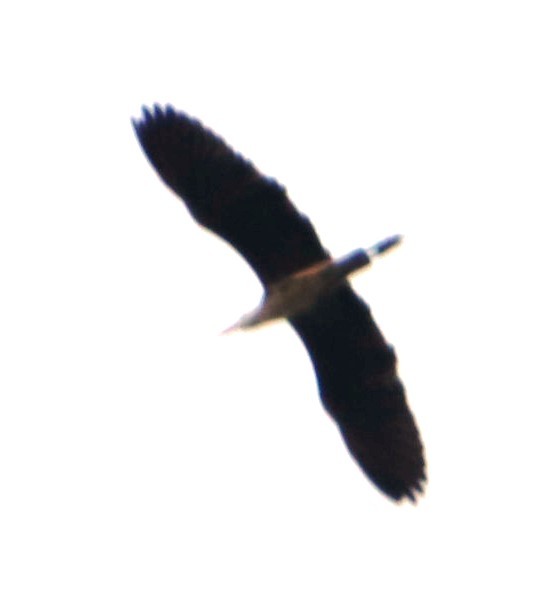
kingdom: Animalia
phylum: Chordata
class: Aves
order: Pelecaniformes
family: Ardeidae
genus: Ardea
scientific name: Ardea cinerea
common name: Grey heron
